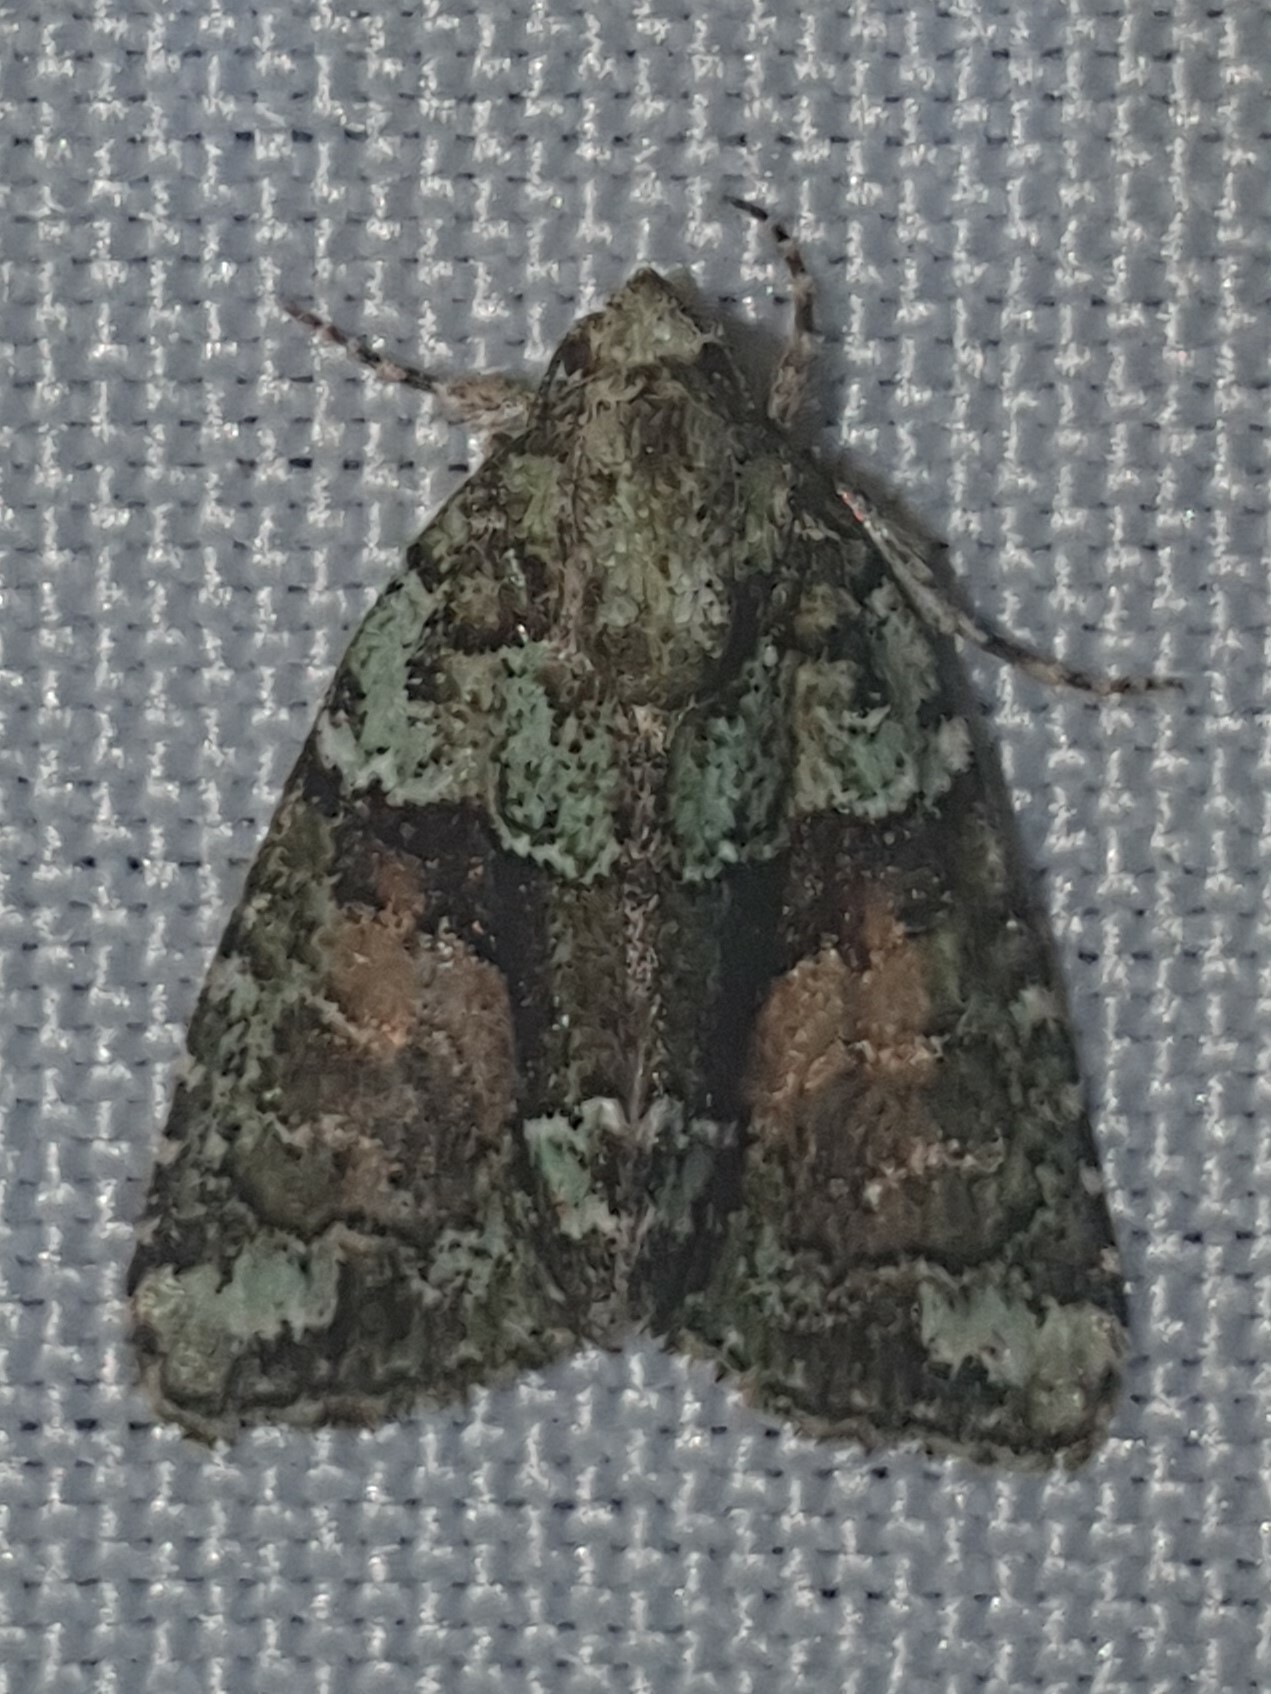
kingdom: Animalia
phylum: Arthropoda
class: Insecta
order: Lepidoptera
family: Noctuidae
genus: Cryphia
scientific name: Cryphia algae
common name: Tree-lichen beauty
